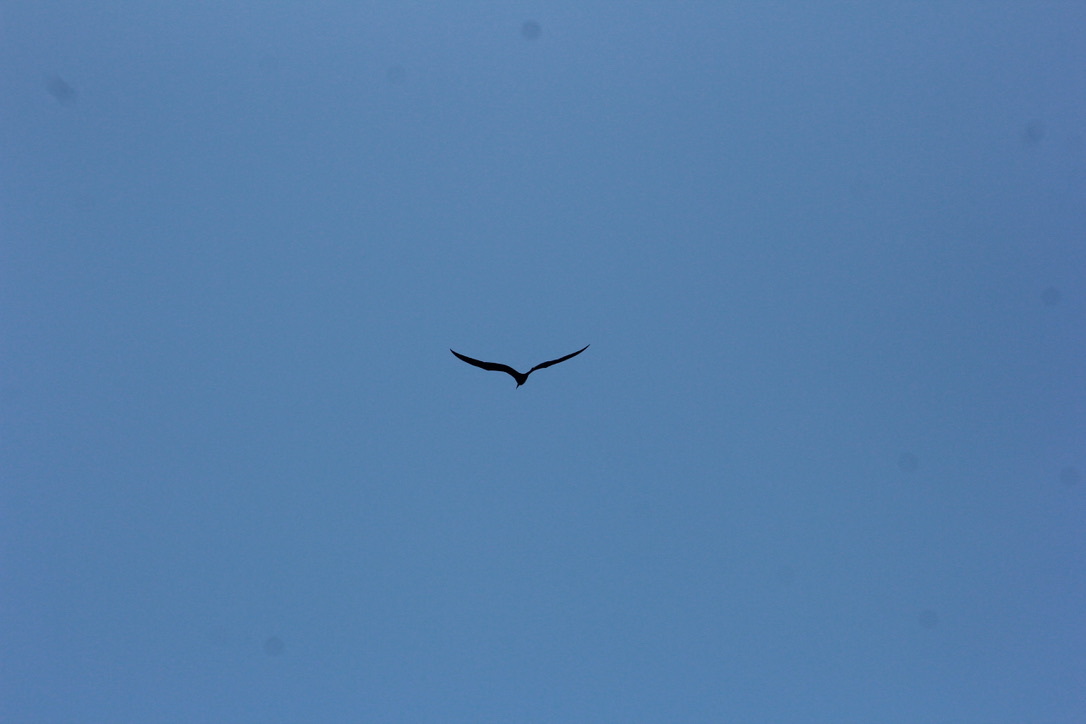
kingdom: Animalia
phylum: Chordata
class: Aves
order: Suliformes
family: Fregatidae
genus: Fregata
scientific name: Fregata magnificens
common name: Magnificent frigatebird
